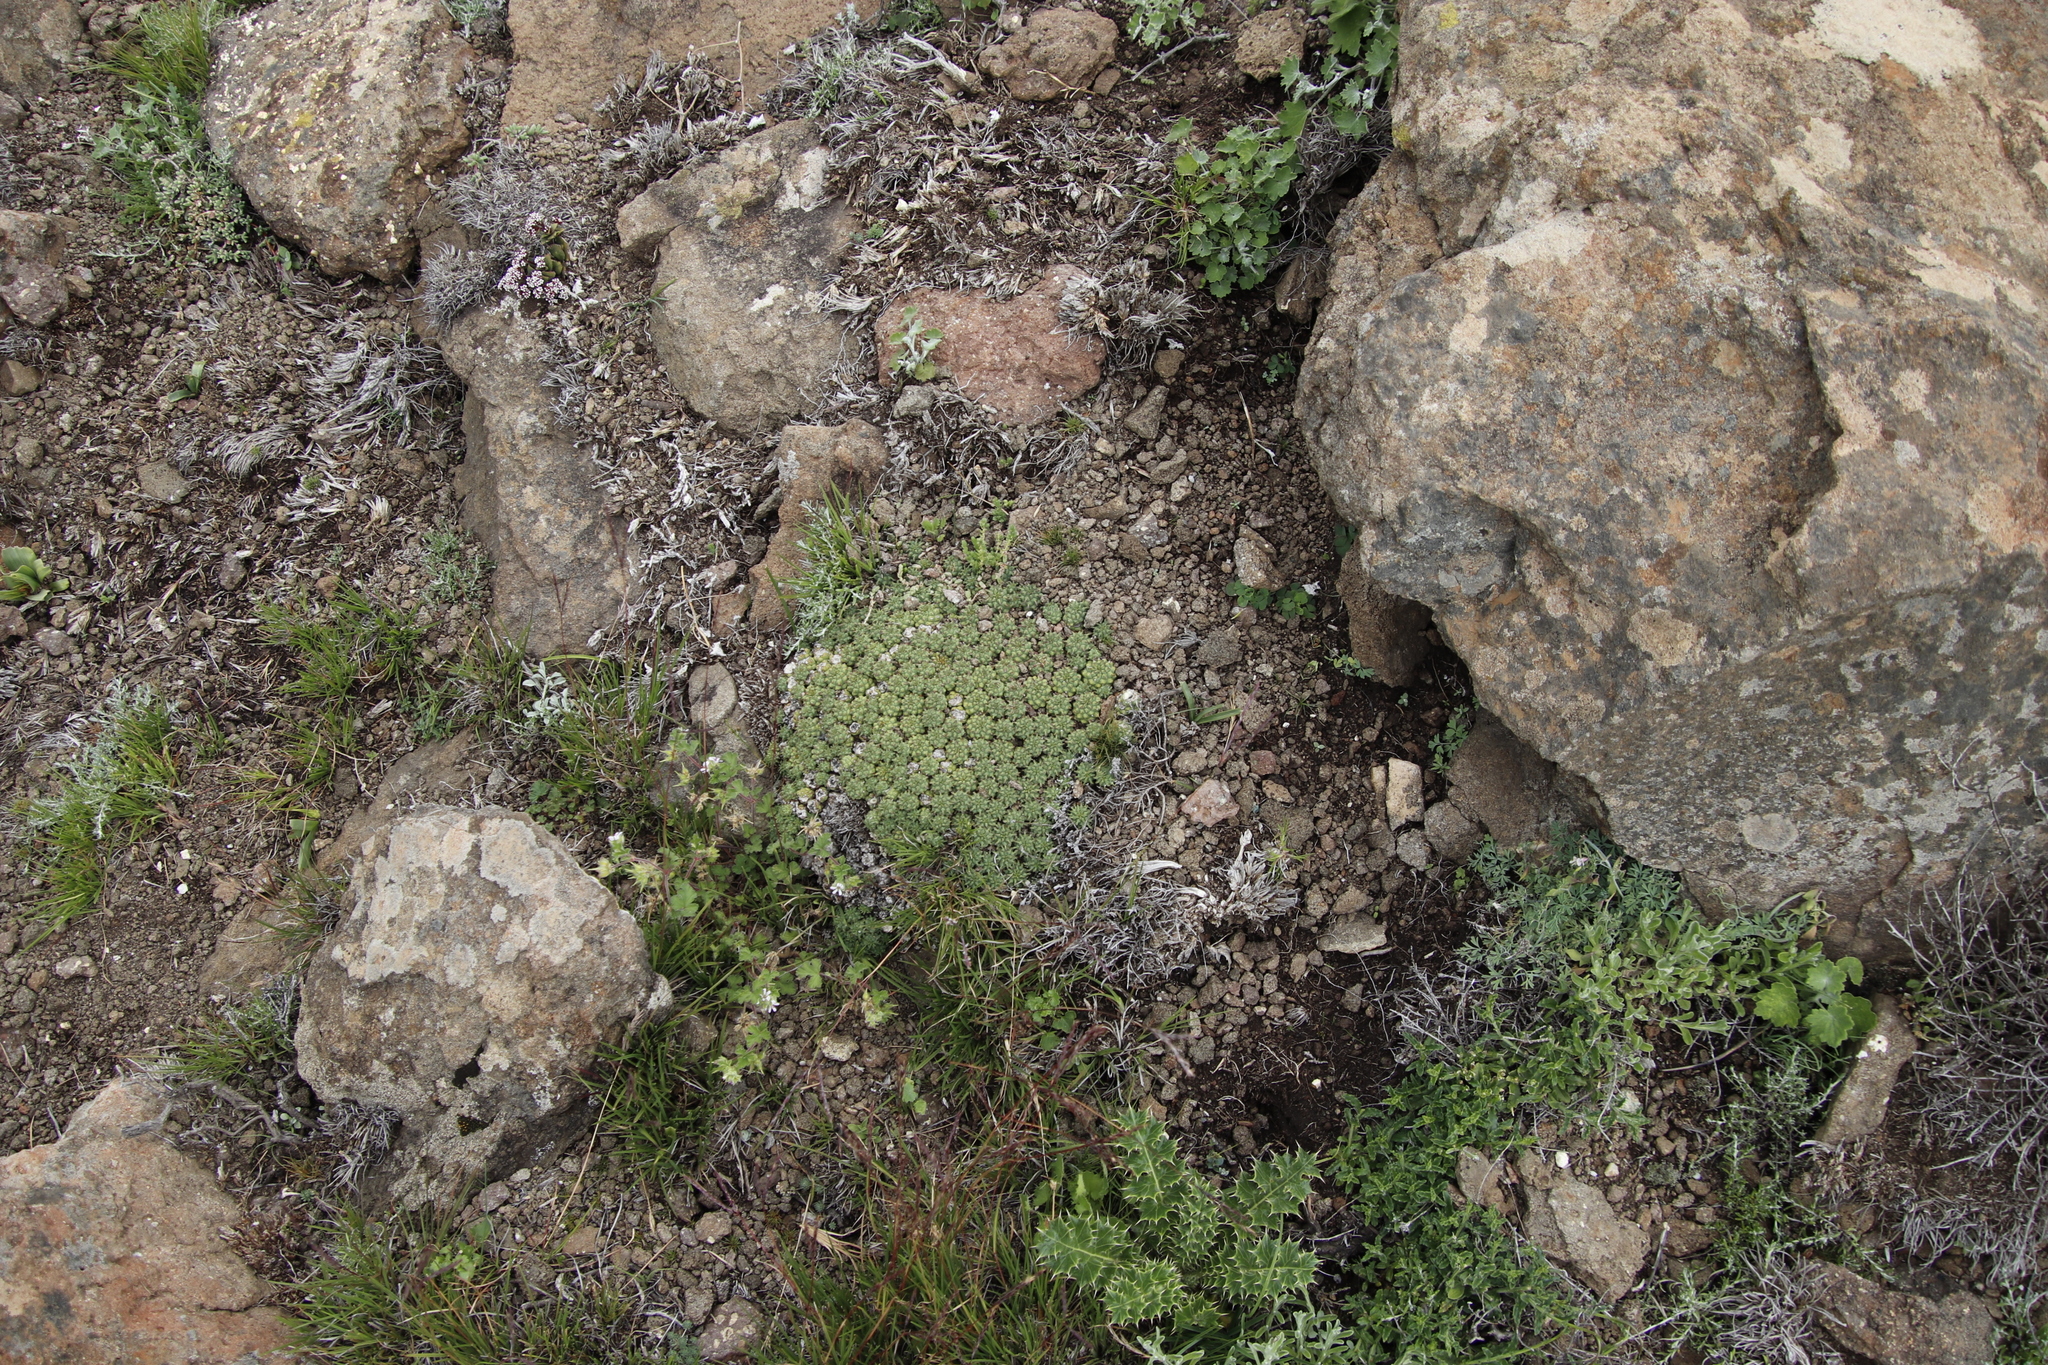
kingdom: Plantae
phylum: Tracheophyta
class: Magnoliopsida
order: Malpighiales
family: Euphorbiaceae
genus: Euphorbia
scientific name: Euphorbia clavarioides
